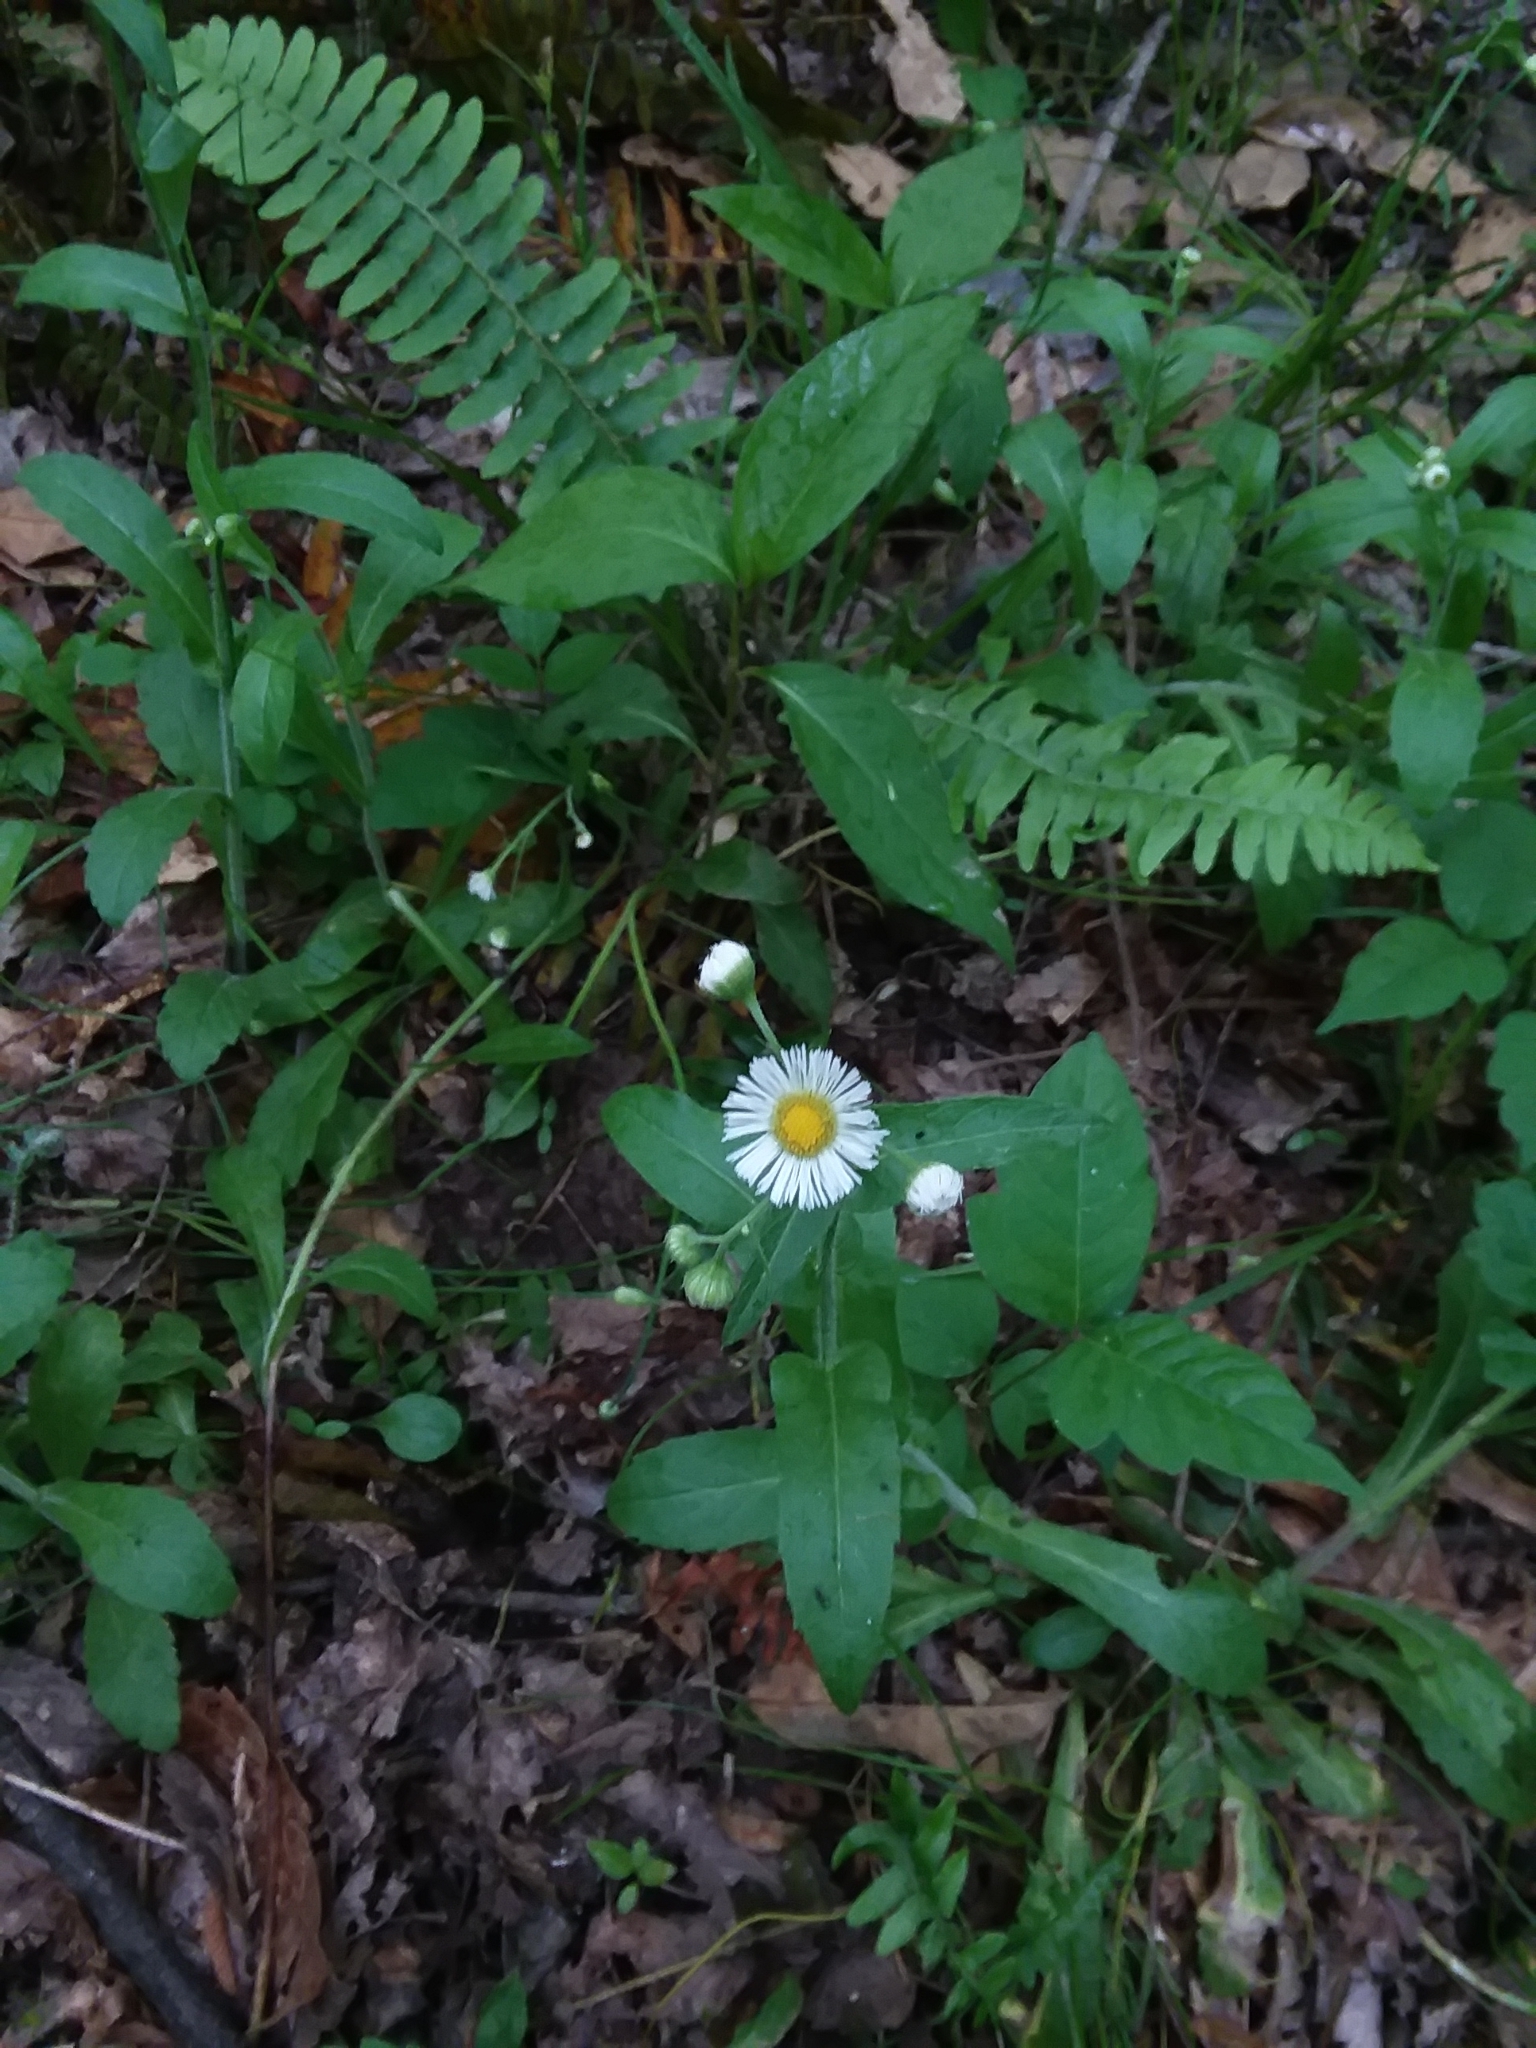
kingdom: Plantae
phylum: Tracheophyta
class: Magnoliopsida
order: Asterales
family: Asteraceae
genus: Erigeron
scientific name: Erigeron philadelphicus
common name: Robin's-plantain
